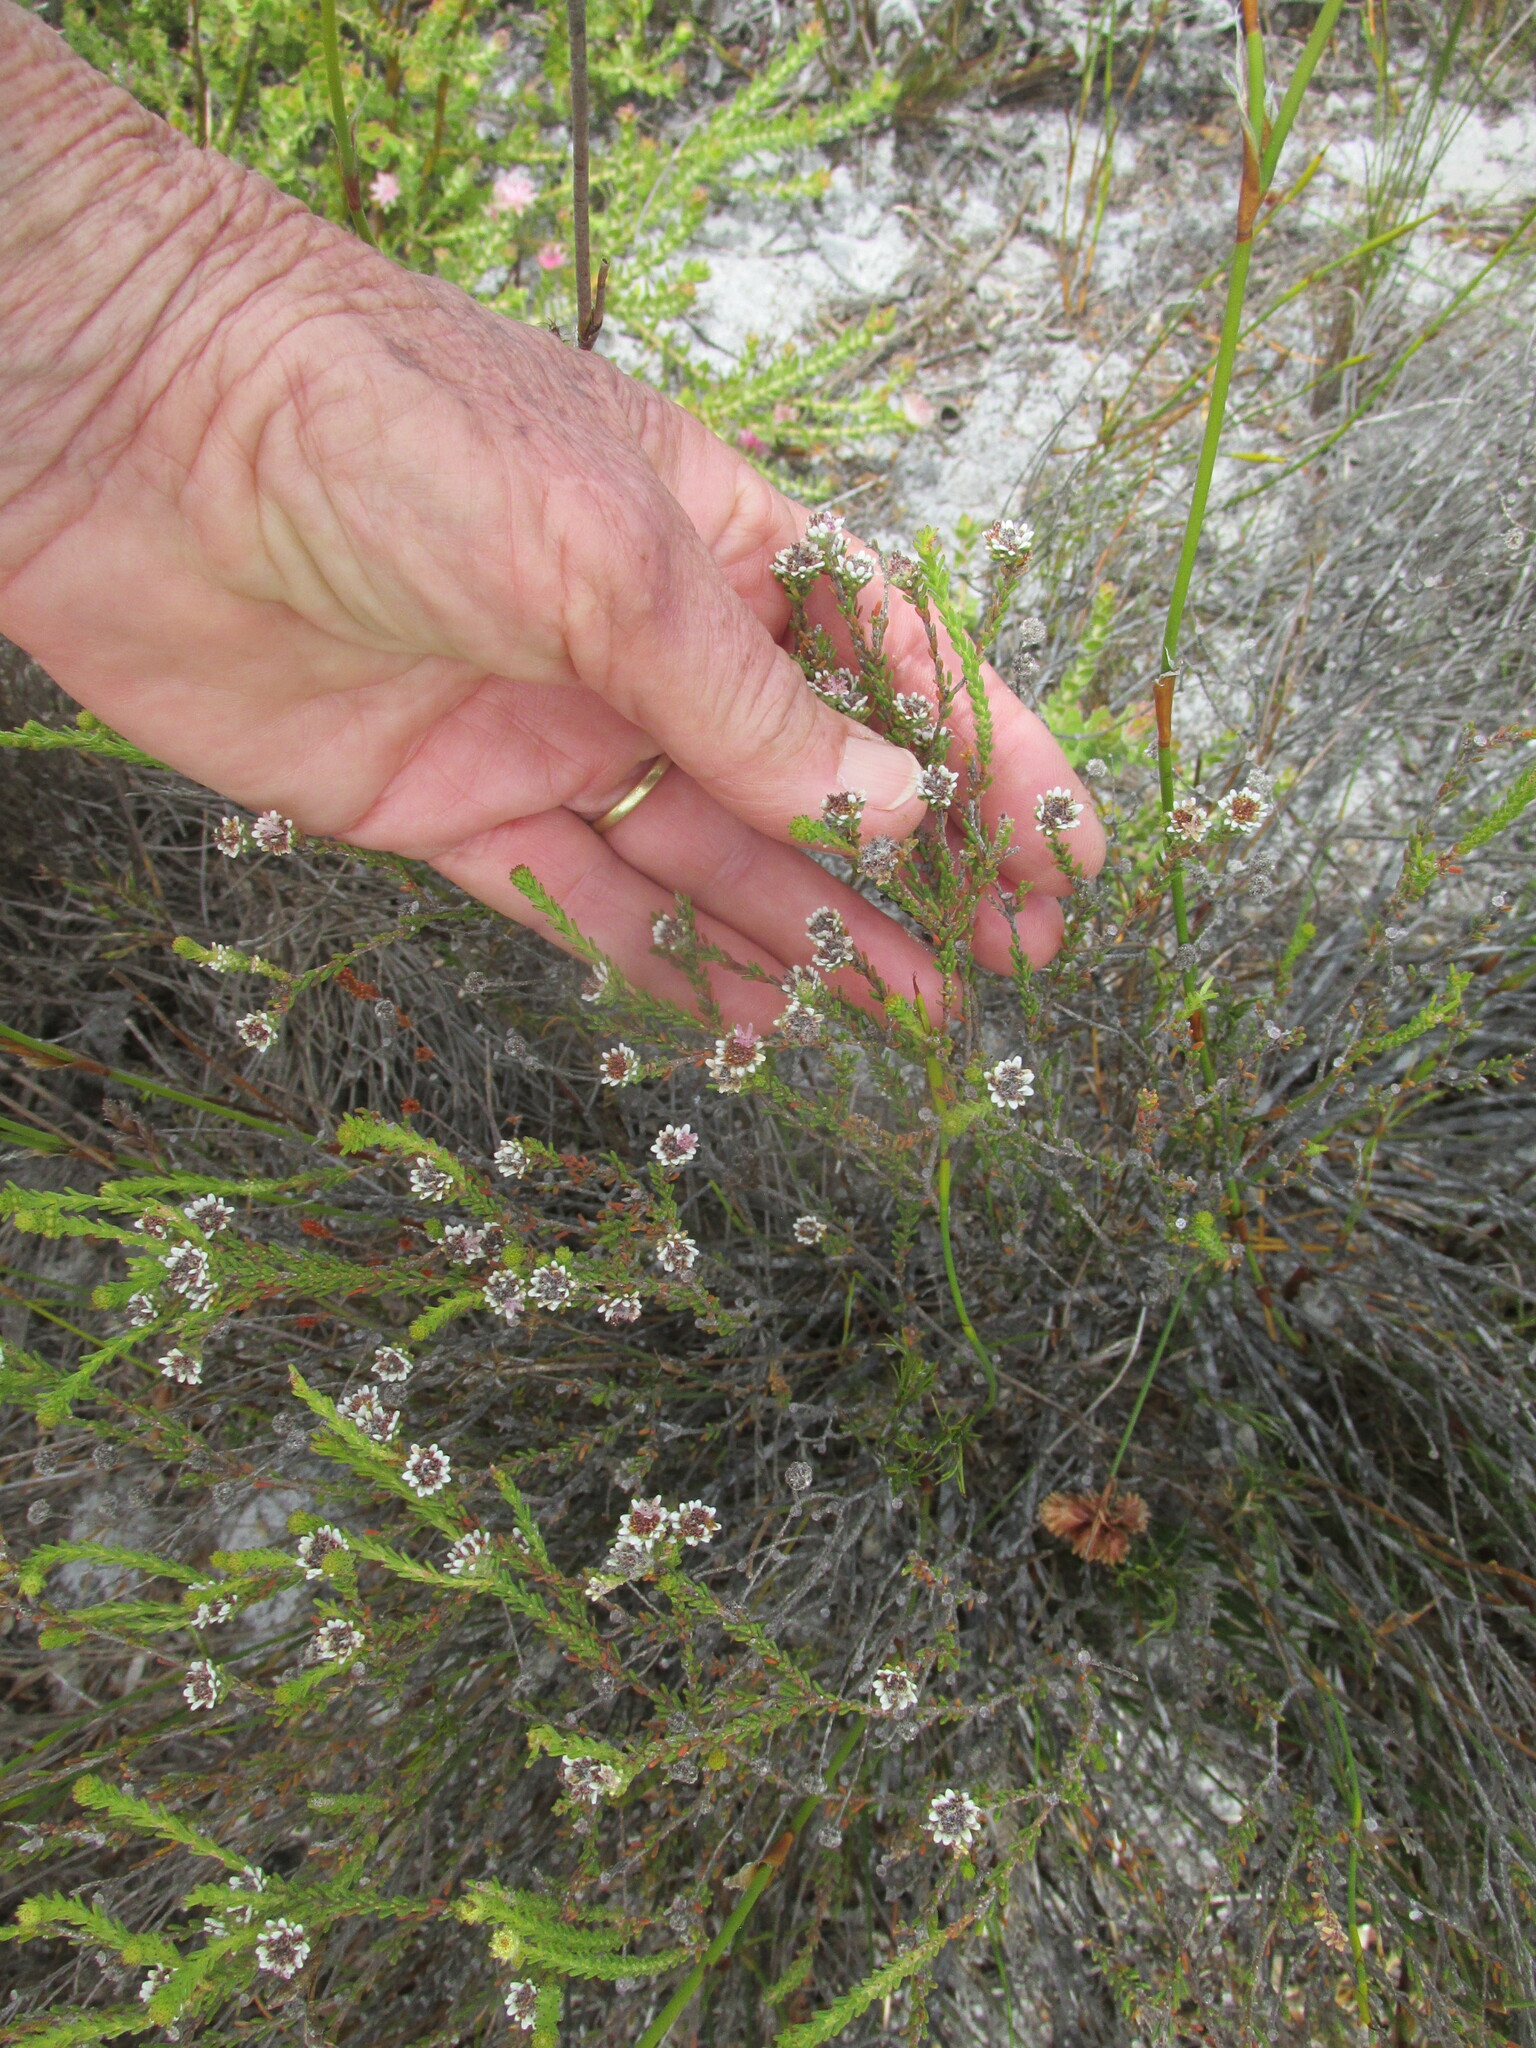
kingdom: Plantae
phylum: Tracheophyta
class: Magnoliopsida
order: Bruniales
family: Bruniaceae
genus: Staavia
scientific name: Staavia radiata
